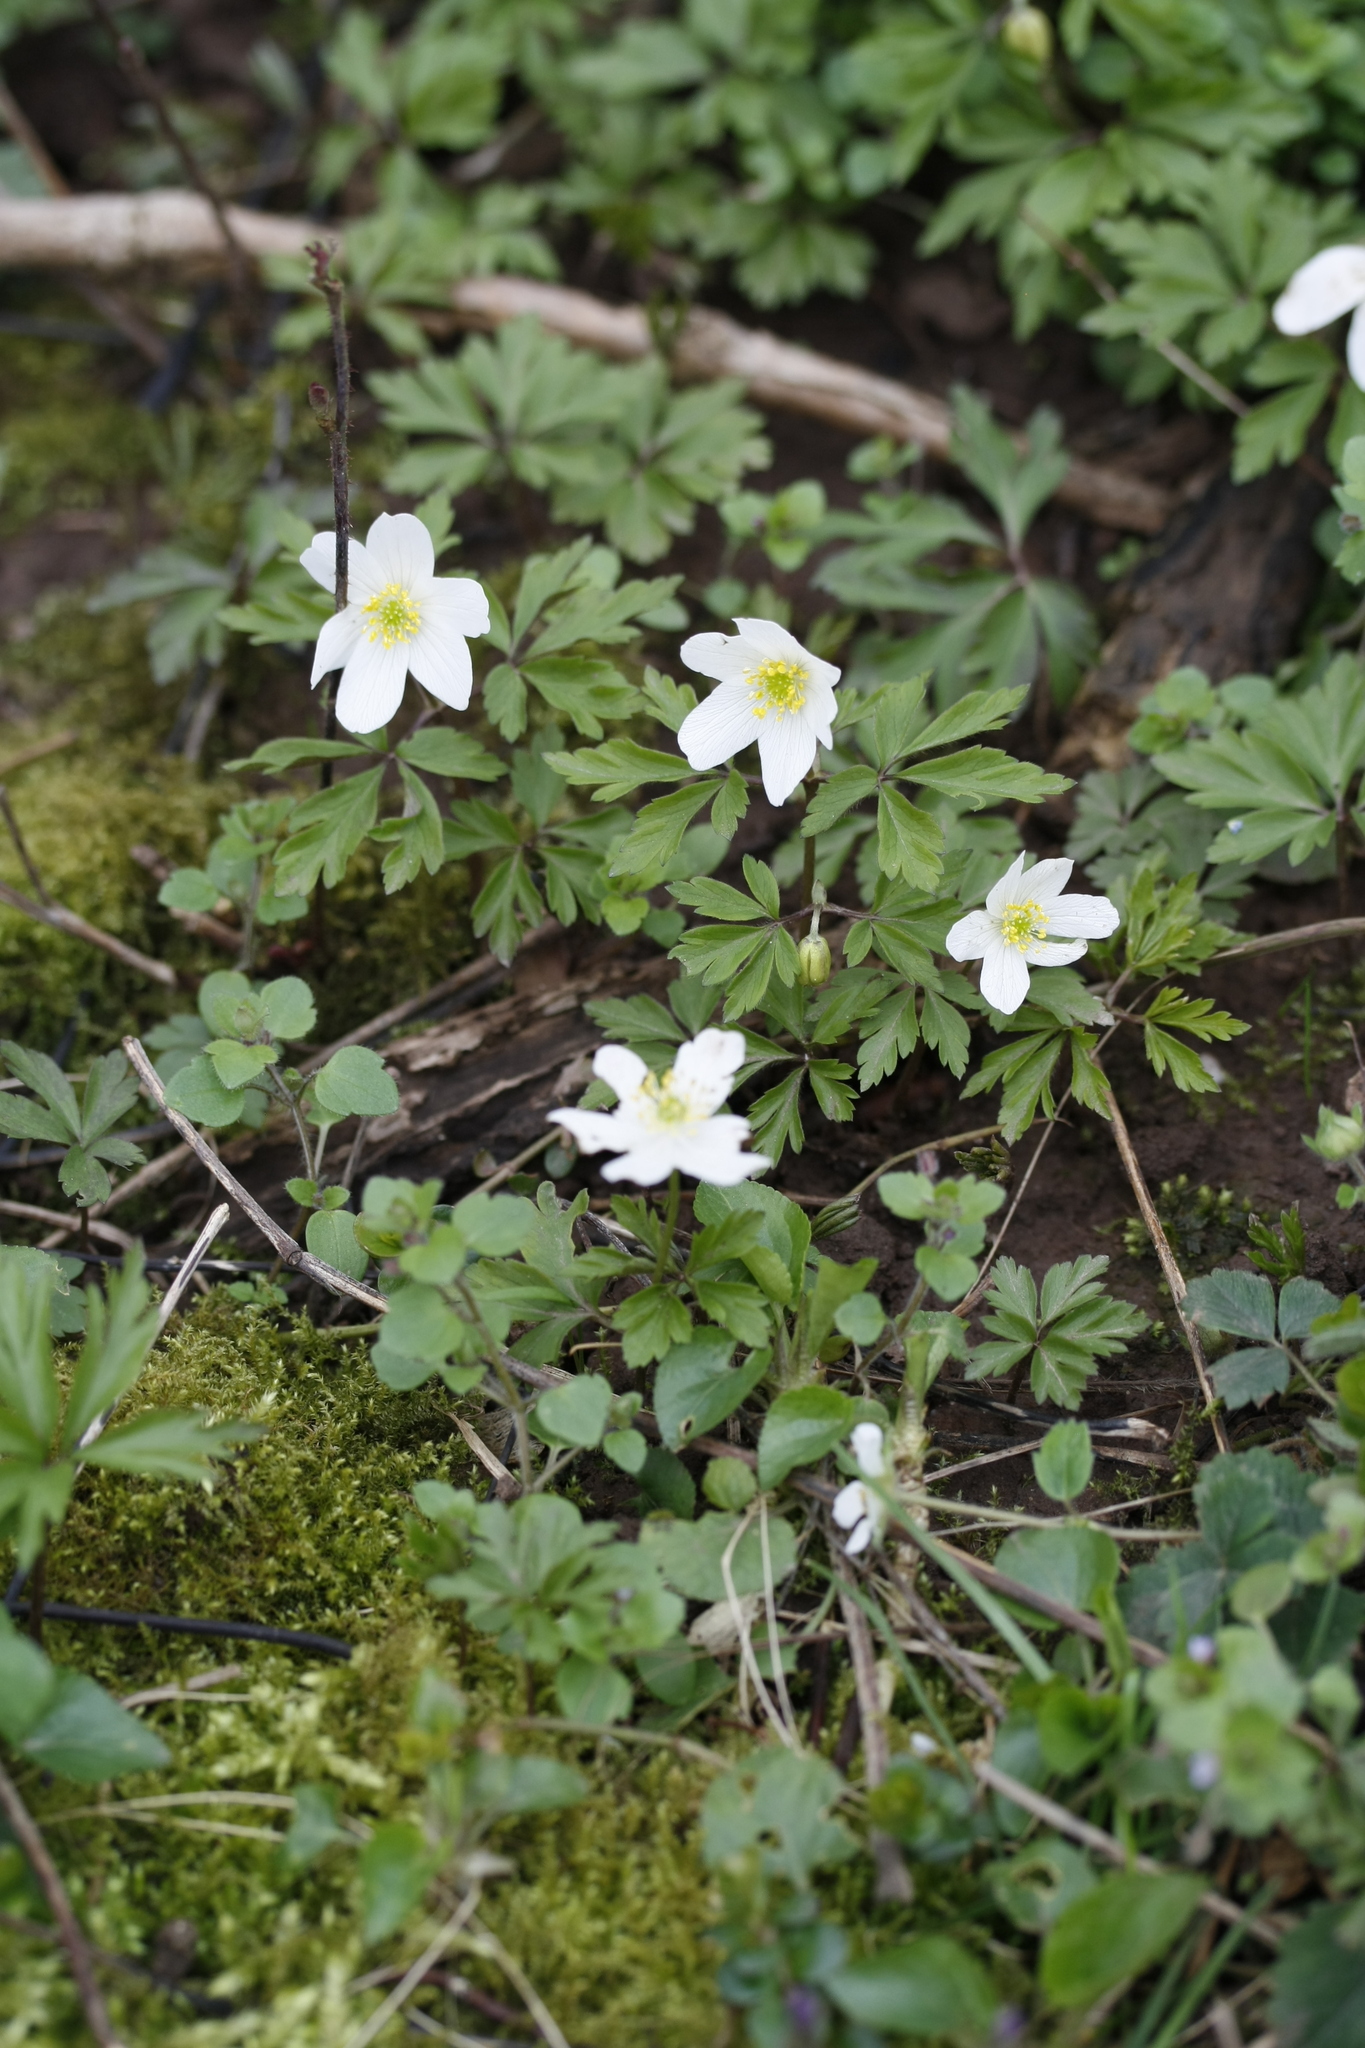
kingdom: Plantae
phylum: Tracheophyta
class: Magnoliopsida
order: Ranunculales
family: Ranunculaceae
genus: Anemone
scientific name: Anemone nemorosa
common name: Wood anemone
